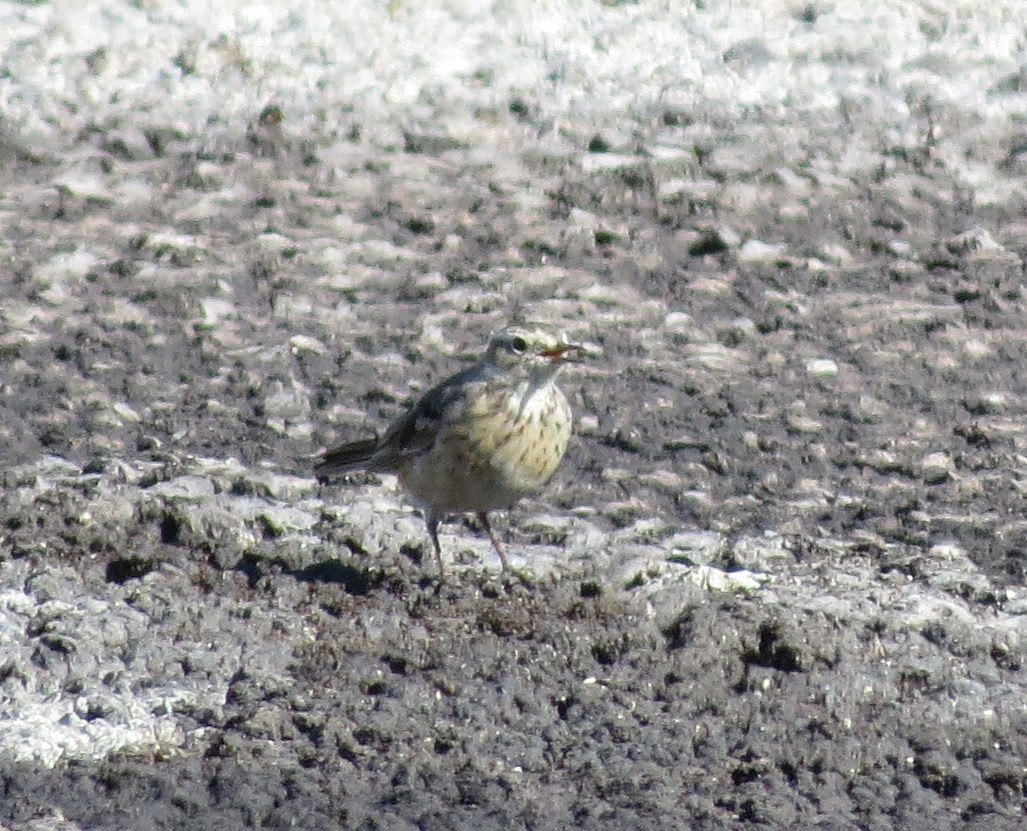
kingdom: Animalia
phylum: Chordata
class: Aves
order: Passeriformes
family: Motacillidae
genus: Anthus
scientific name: Anthus rubescens
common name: Buff-bellied pipit
